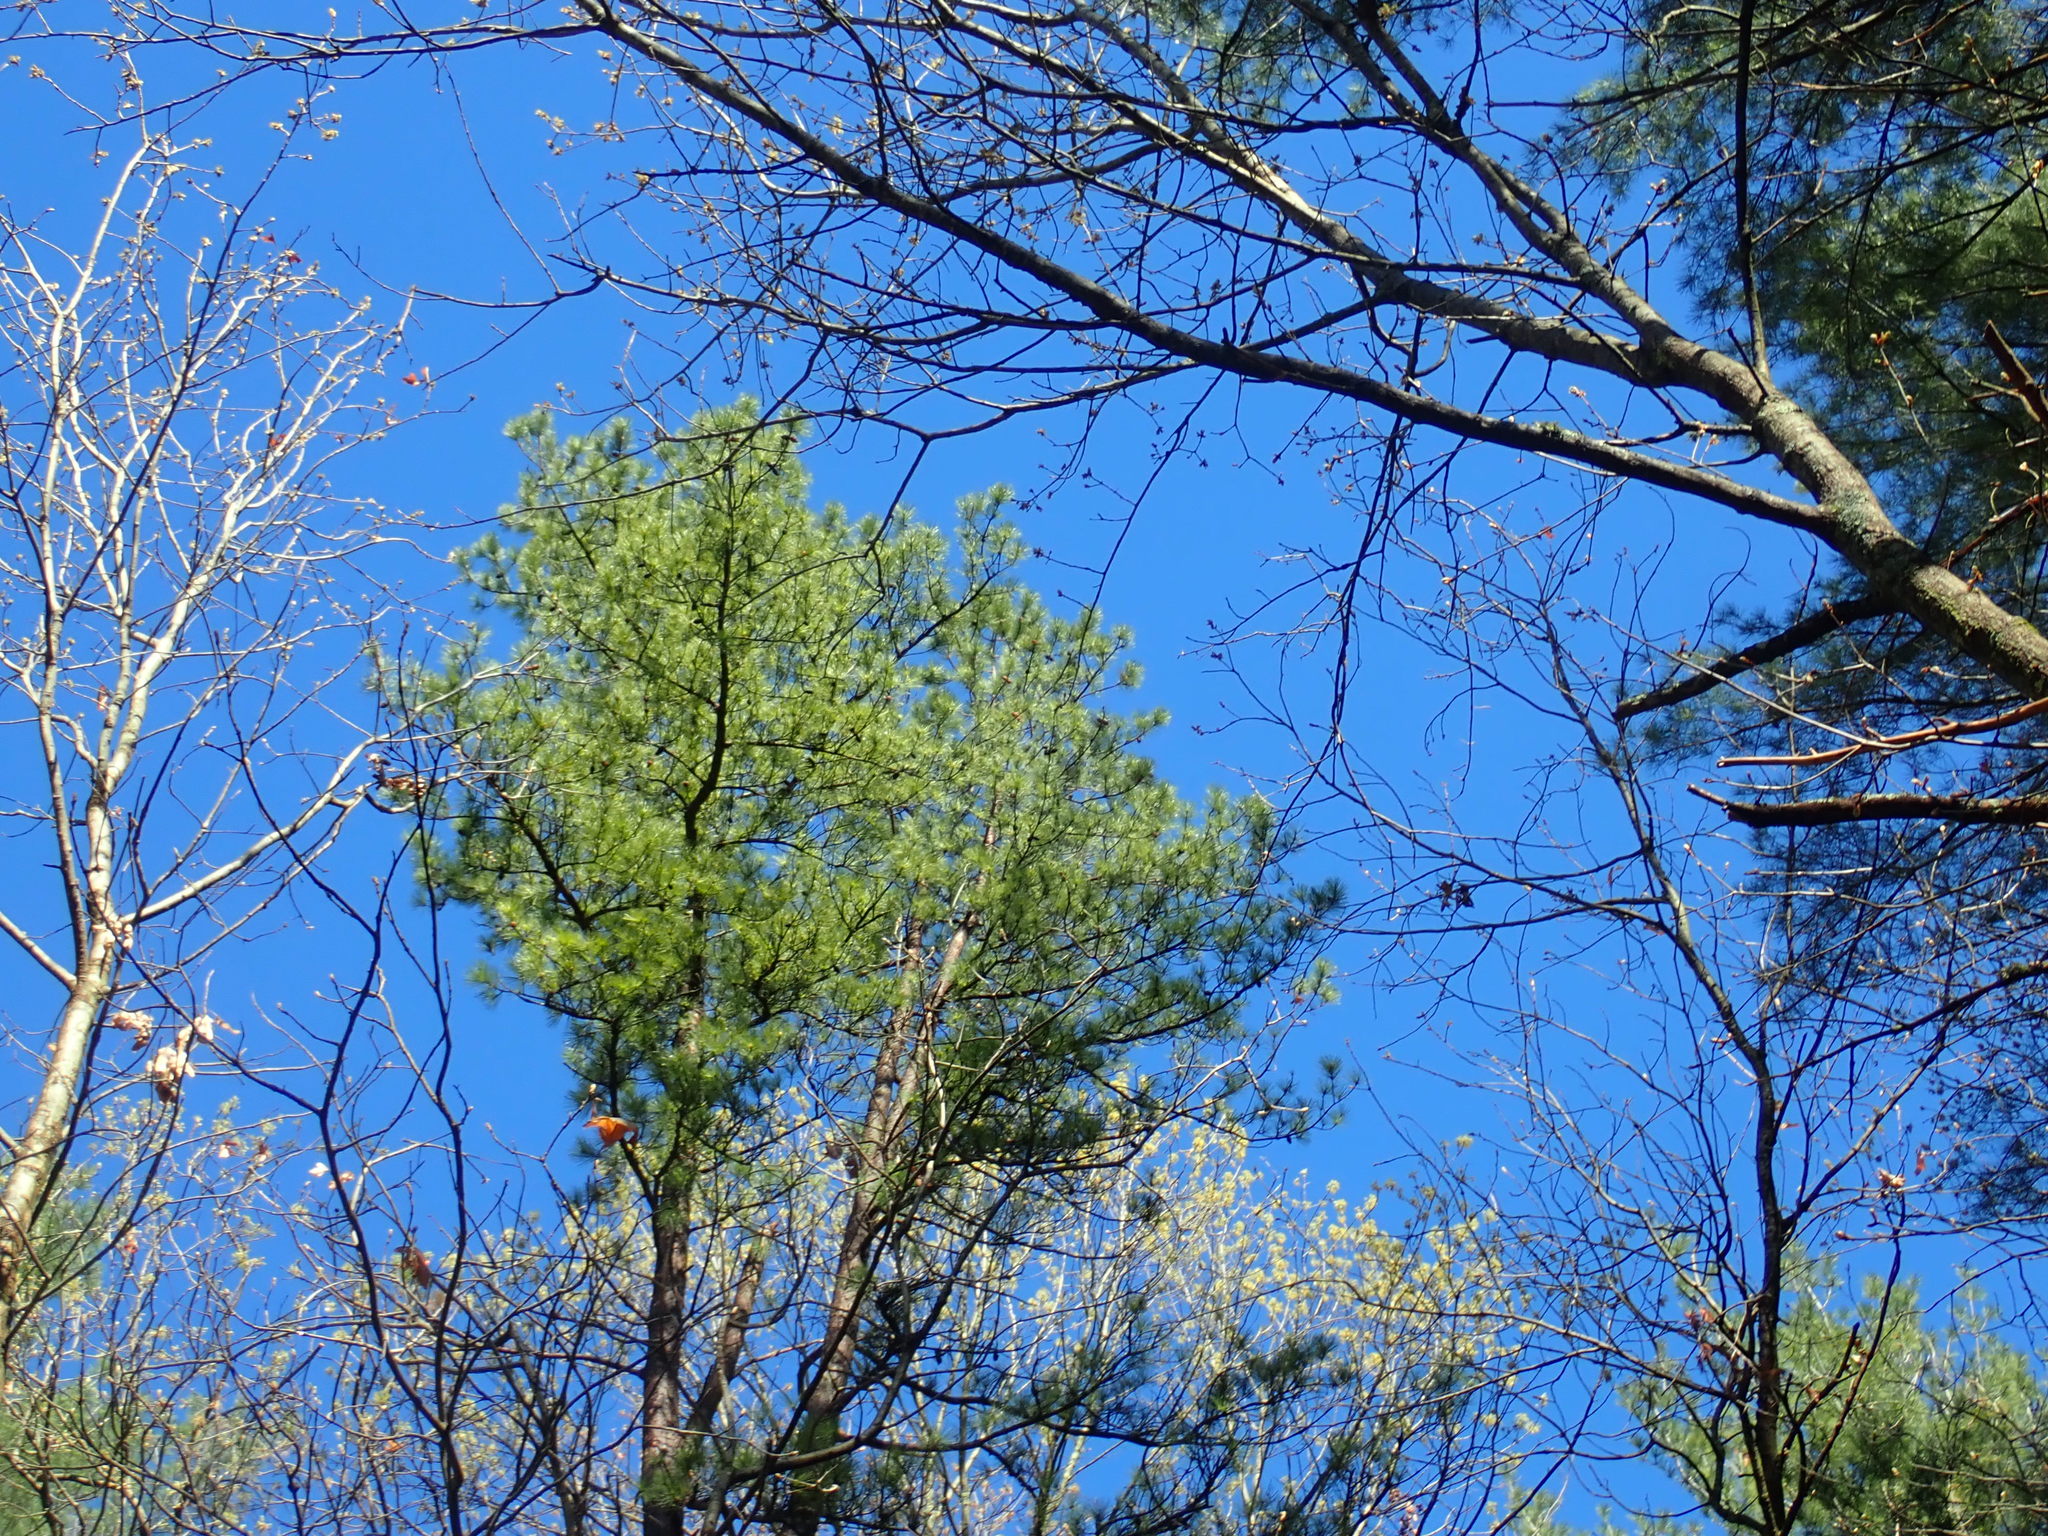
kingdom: Plantae
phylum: Tracheophyta
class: Pinopsida
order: Pinales
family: Pinaceae
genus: Pinus
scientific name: Pinus rigida
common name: Pitch pine
